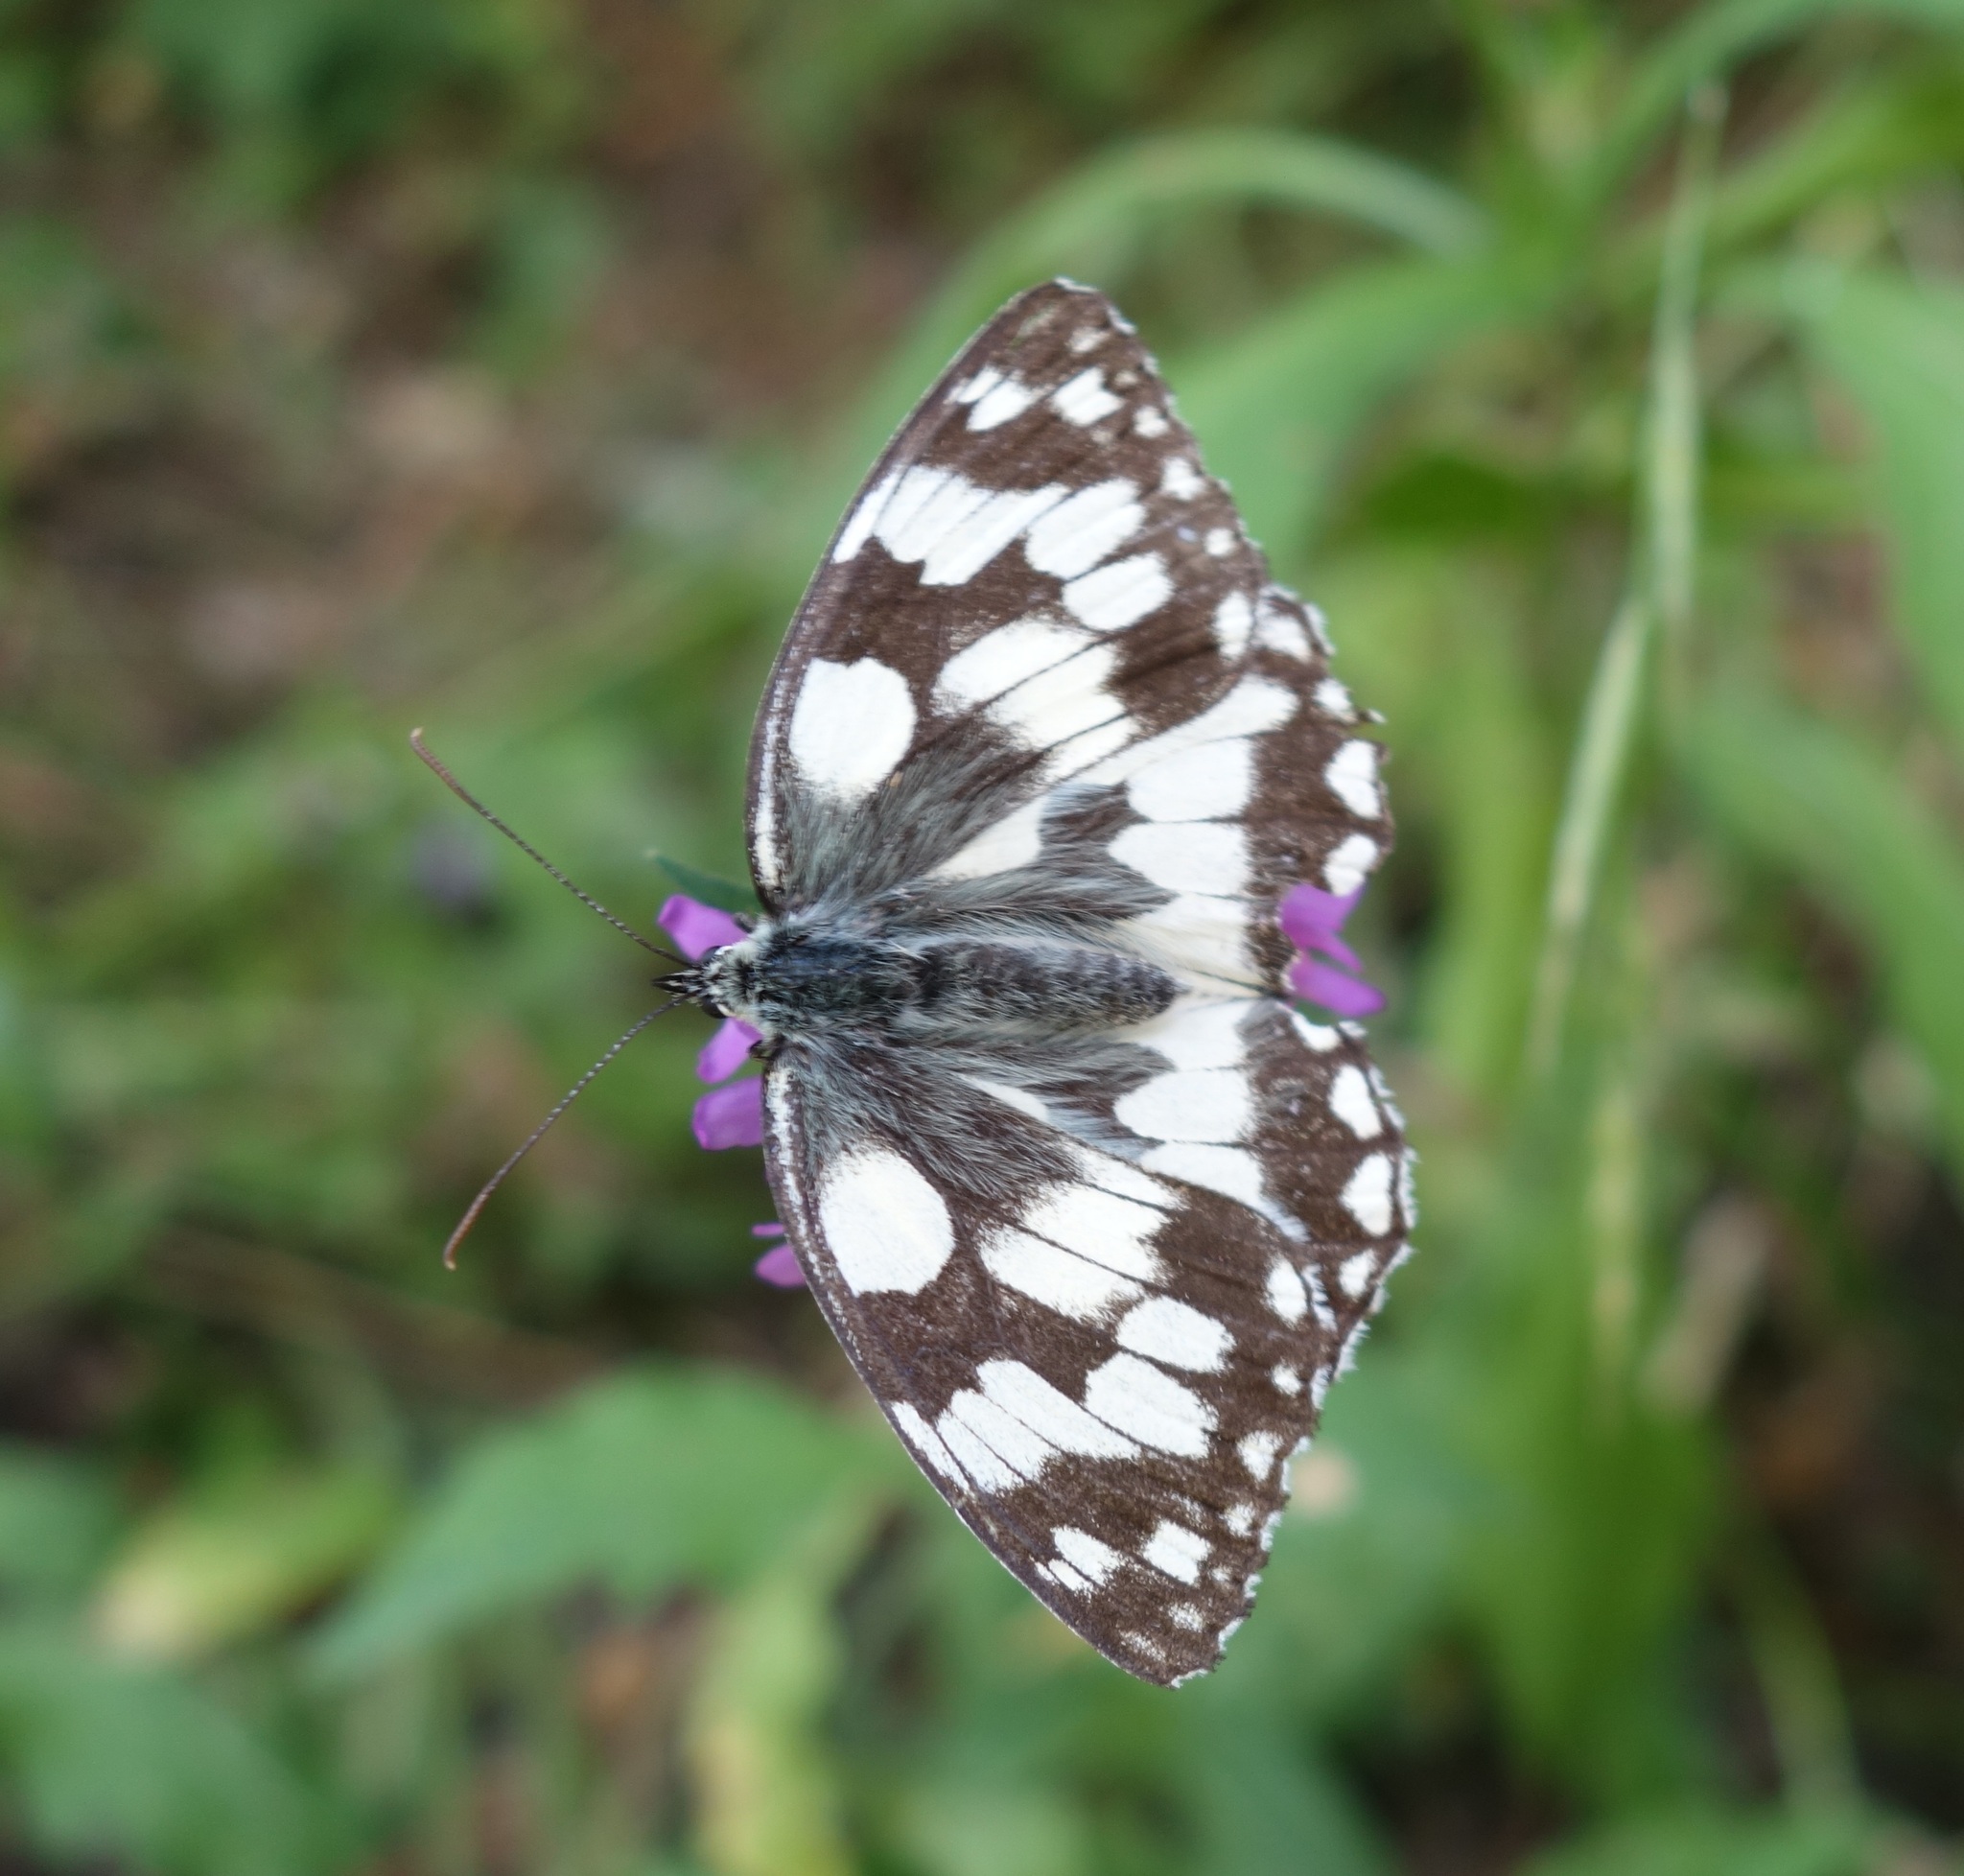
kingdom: Animalia
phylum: Arthropoda
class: Insecta
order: Lepidoptera
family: Nymphalidae
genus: Melanargia
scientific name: Melanargia galathea
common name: Marbled white
